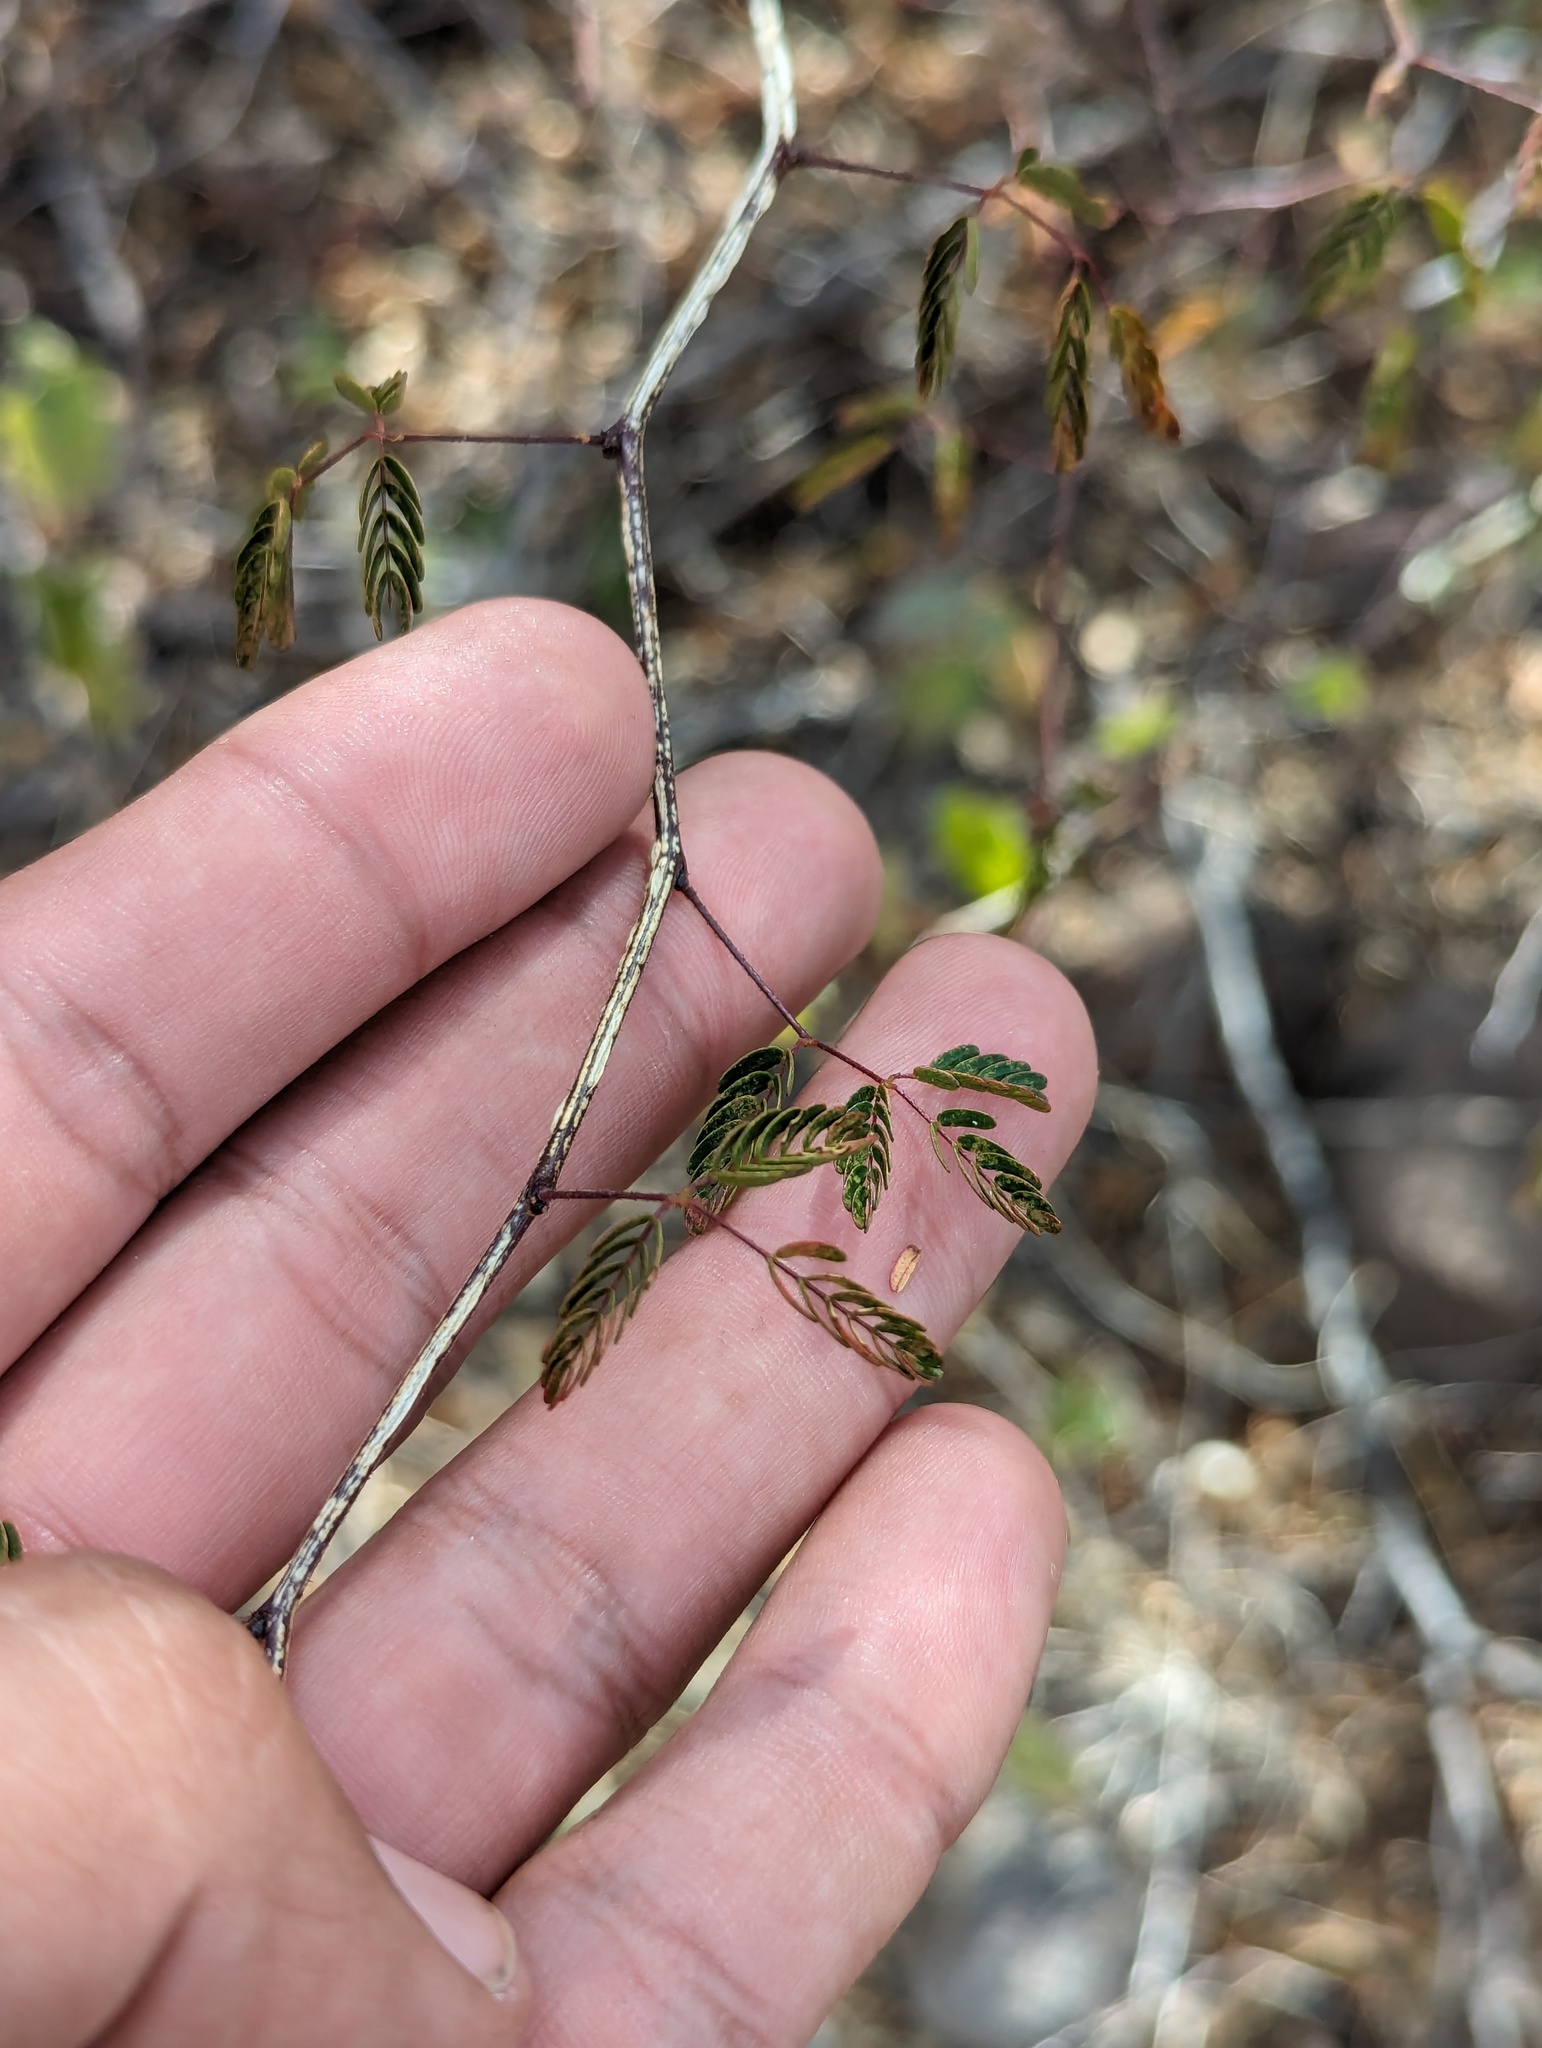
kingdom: Plantae
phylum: Tracheophyta
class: Magnoliopsida
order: Fabales
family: Fabaceae
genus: Lysiloma
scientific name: Lysiloma divaricatum
